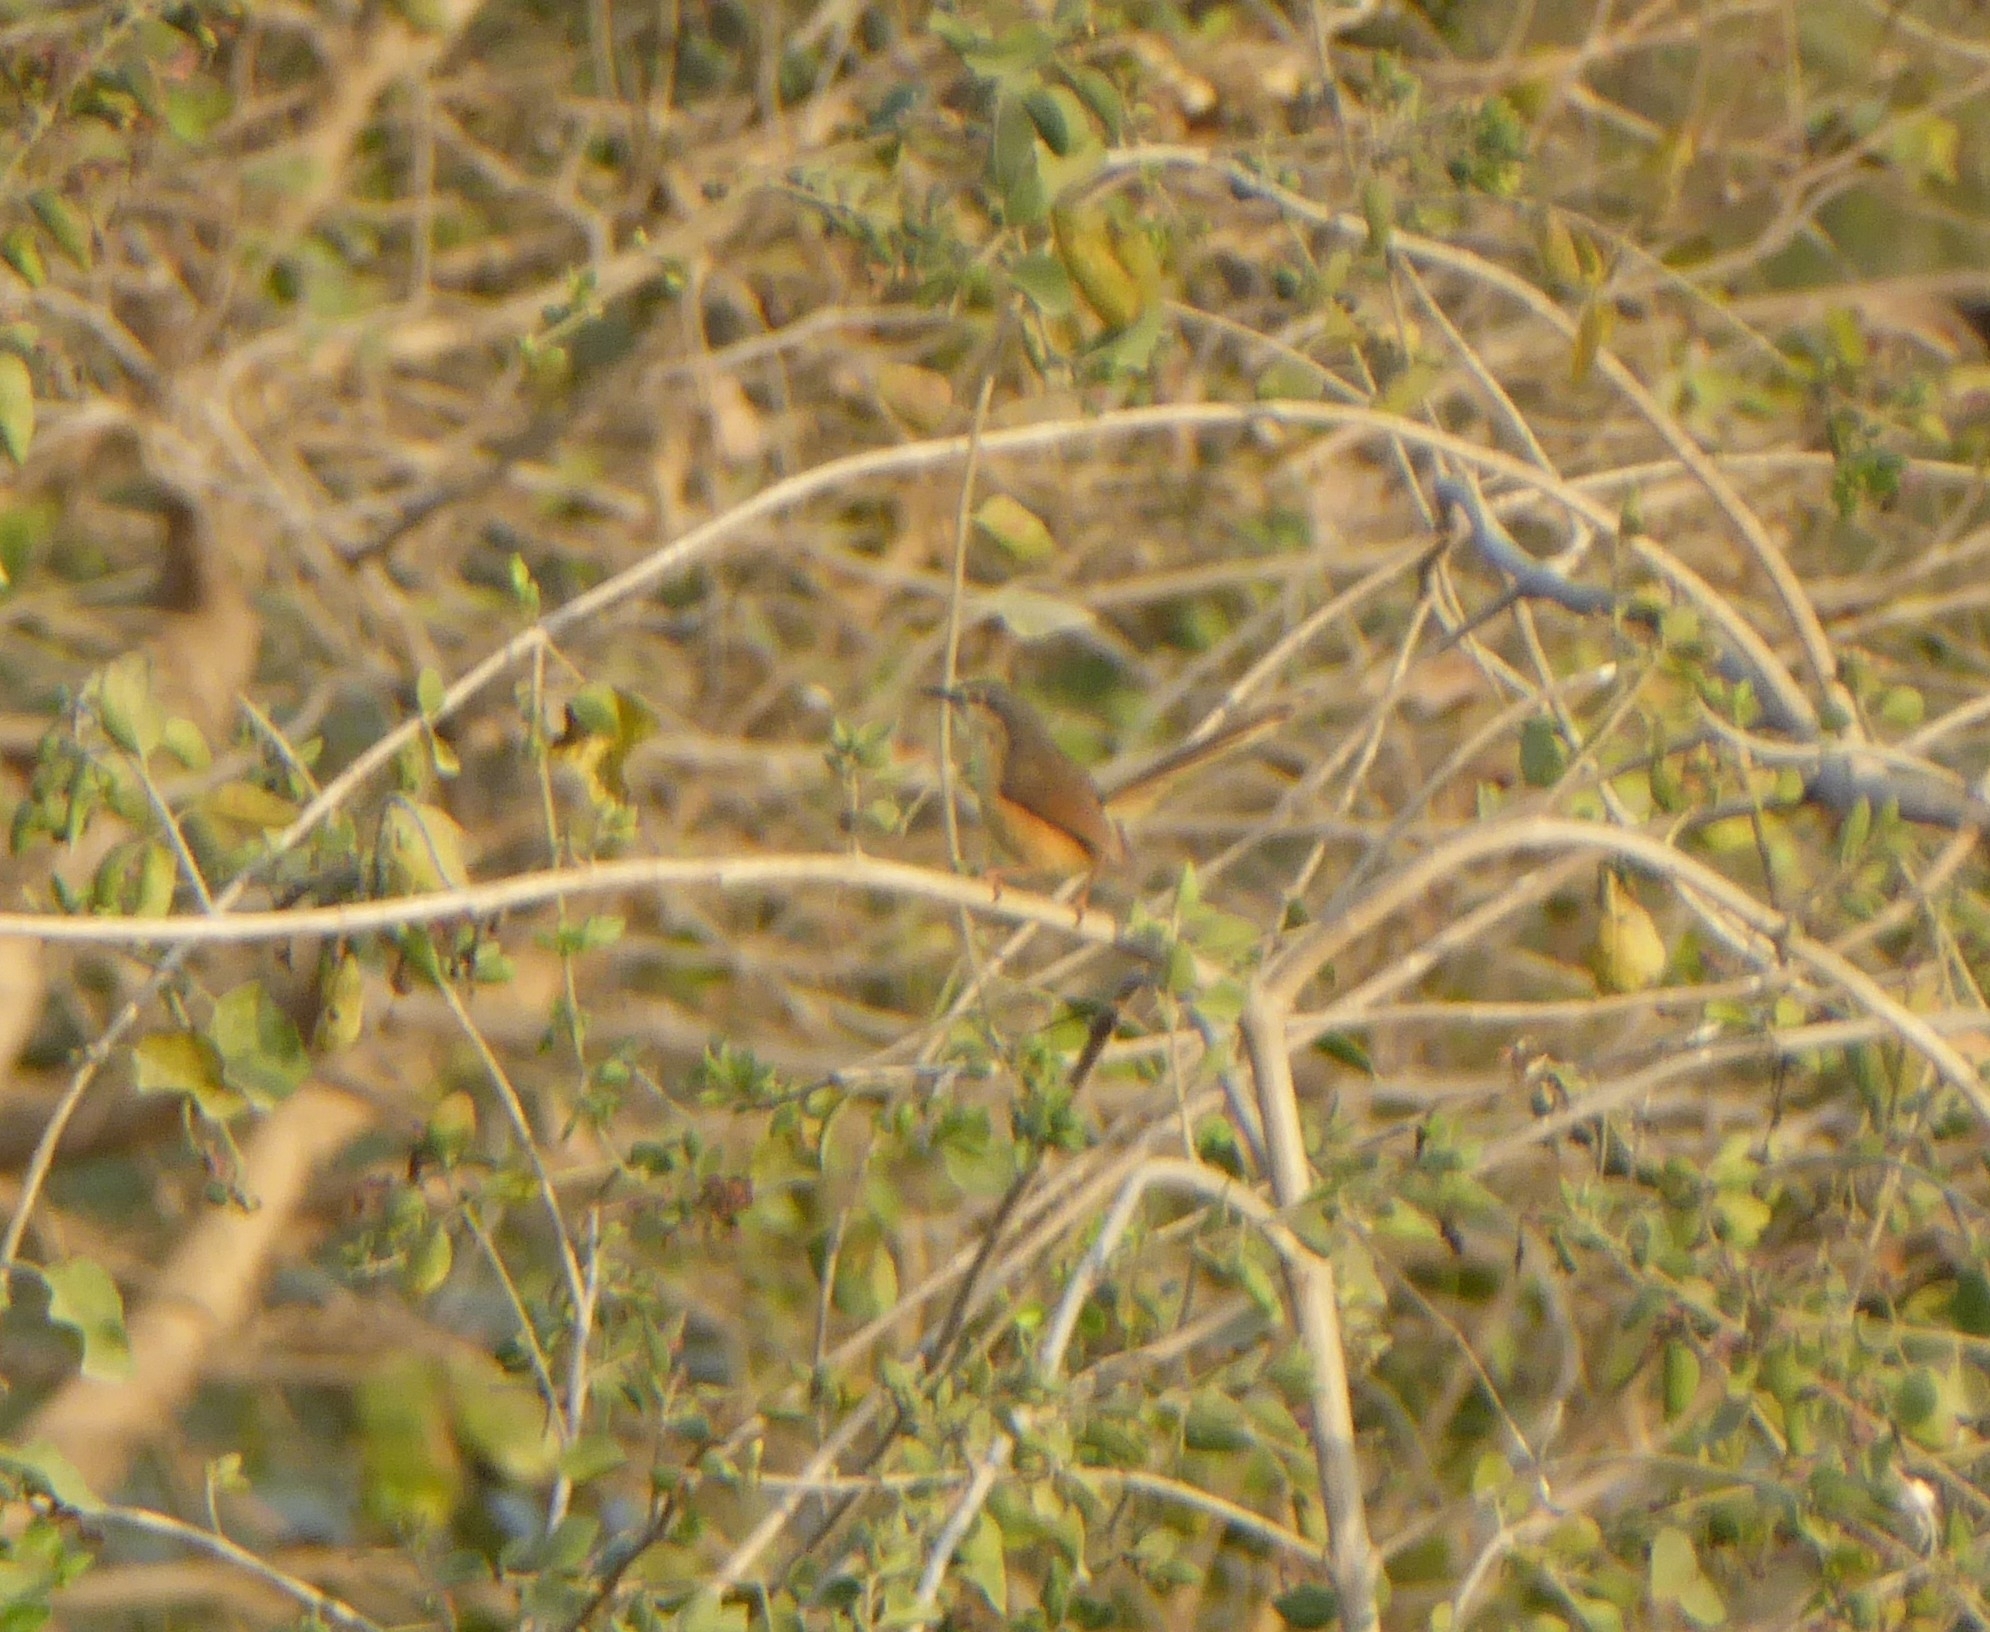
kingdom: Animalia
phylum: Chordata
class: Aves
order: Passeriformes
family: Cisticolidae
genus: Prinia
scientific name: Prinia socialis
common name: Ashy prinia
